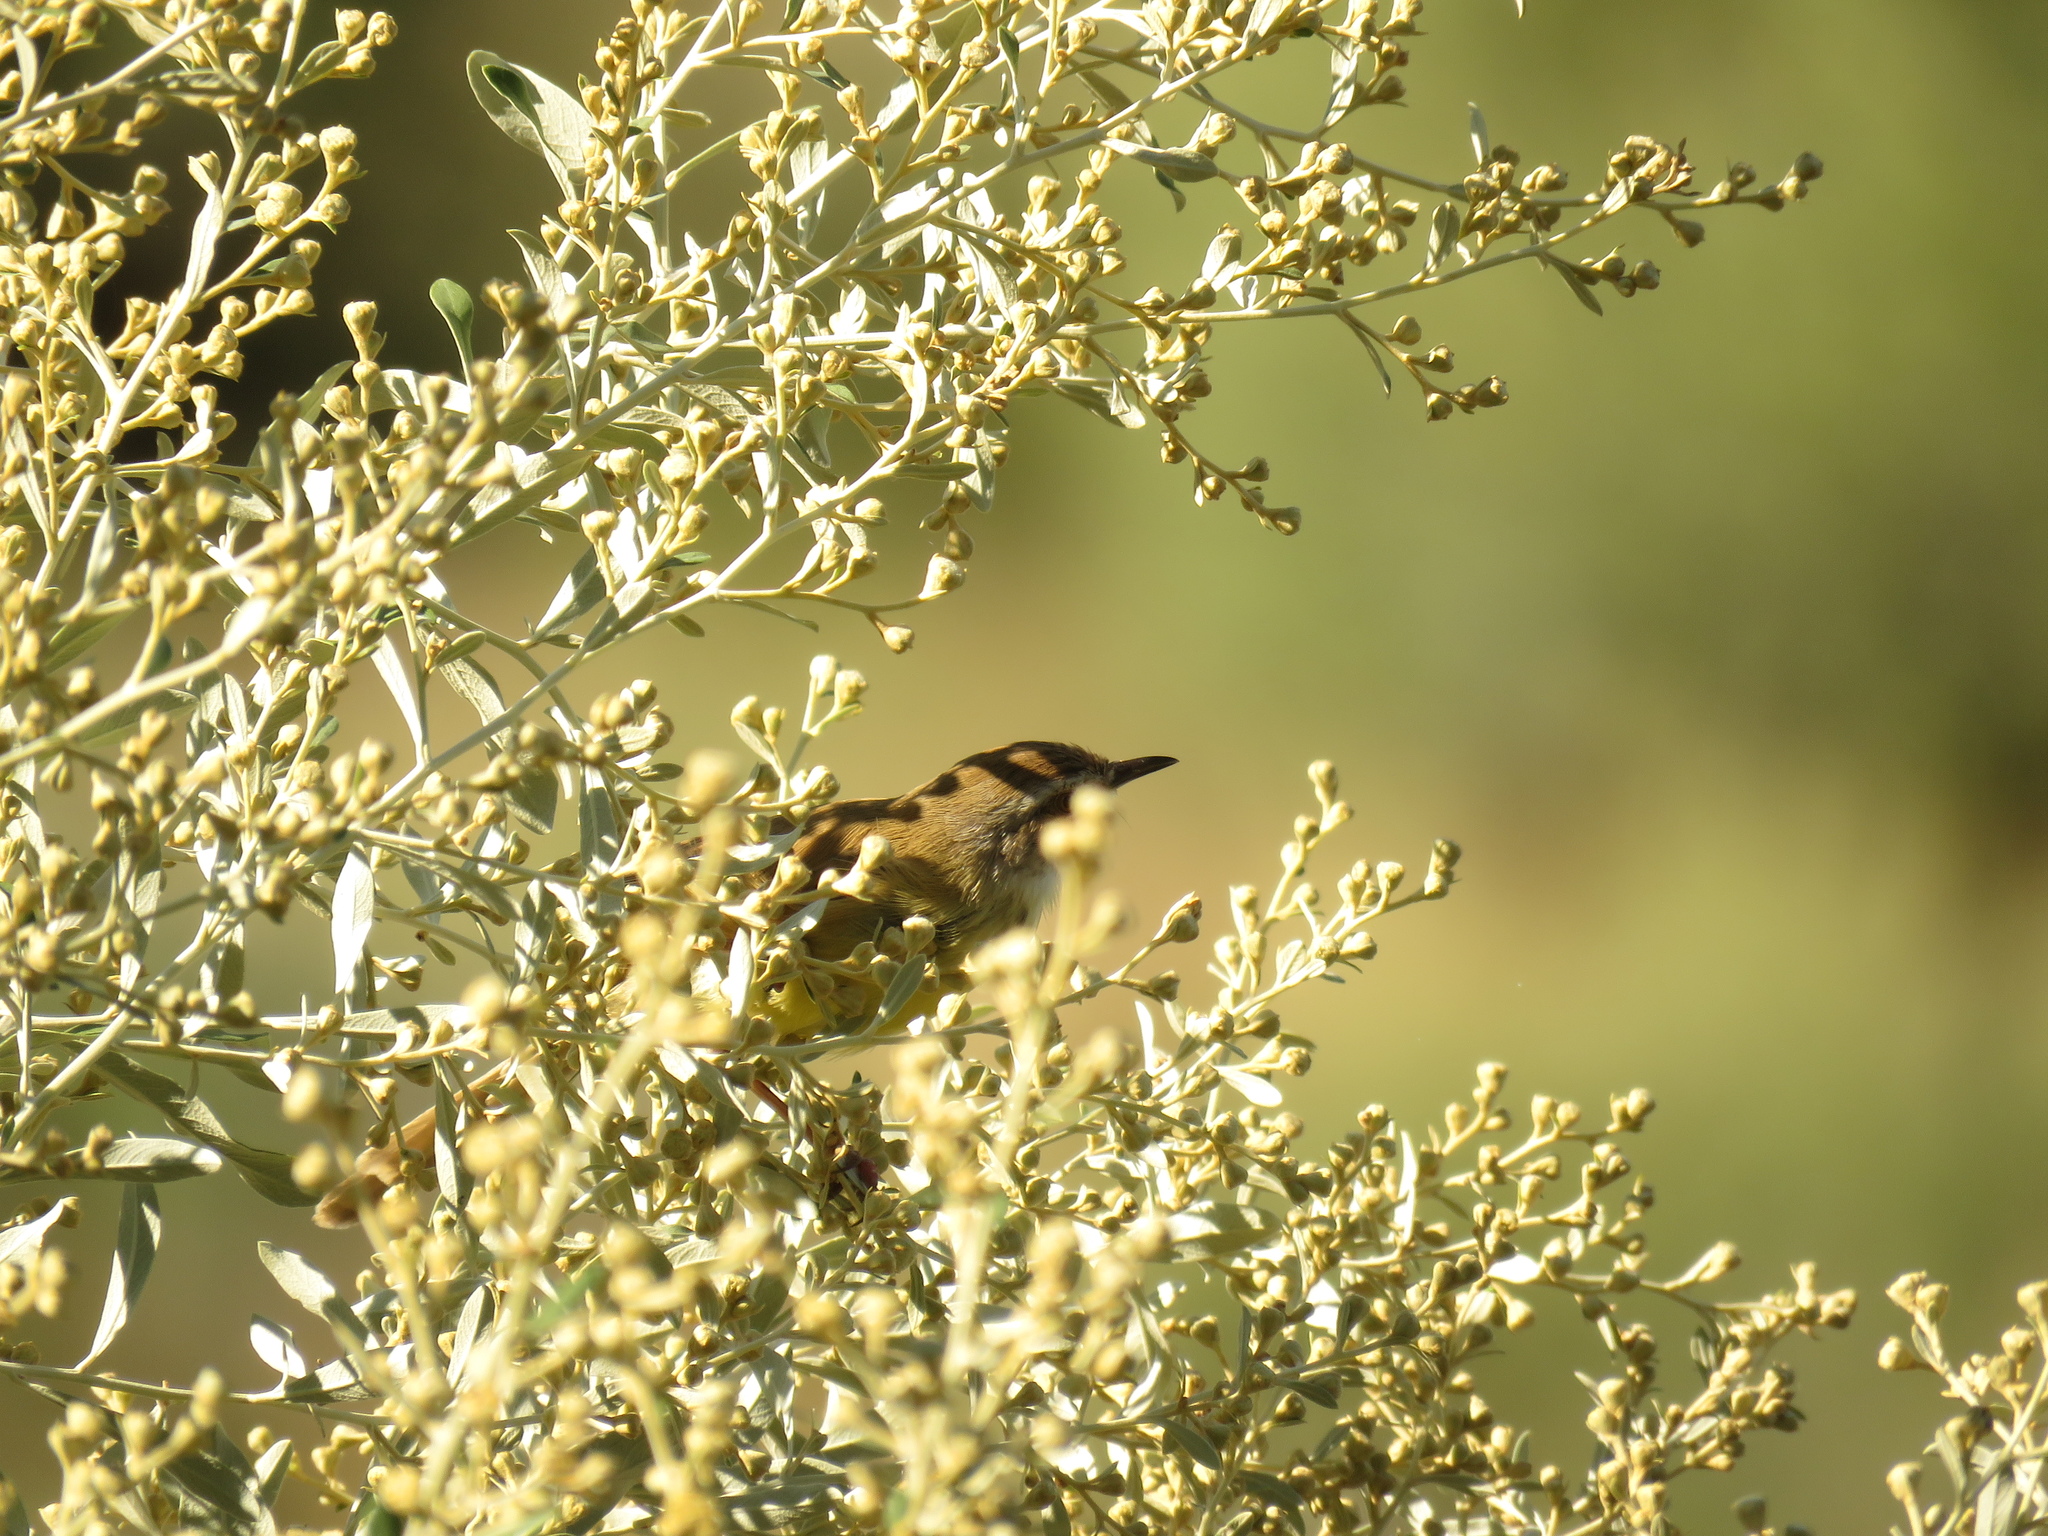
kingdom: Animalia
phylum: Chordata
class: Aves
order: Passeriformes
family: Cisticolidae
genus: Prinia
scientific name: Prinia flavicans
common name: Black-chested prinia
